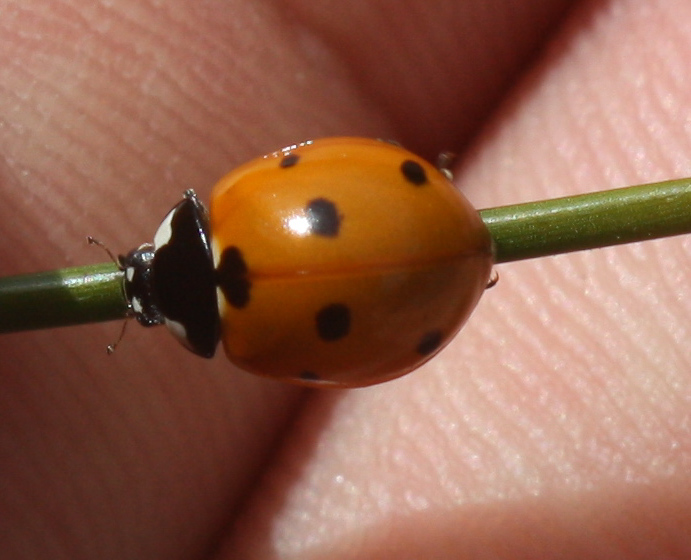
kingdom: Animalia
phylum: Arthropoda
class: Insecta
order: Coleoptera
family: Coccinellidae
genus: Coccinella
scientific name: Coccinella septempunctata
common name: Sevenspotted lady beetle
